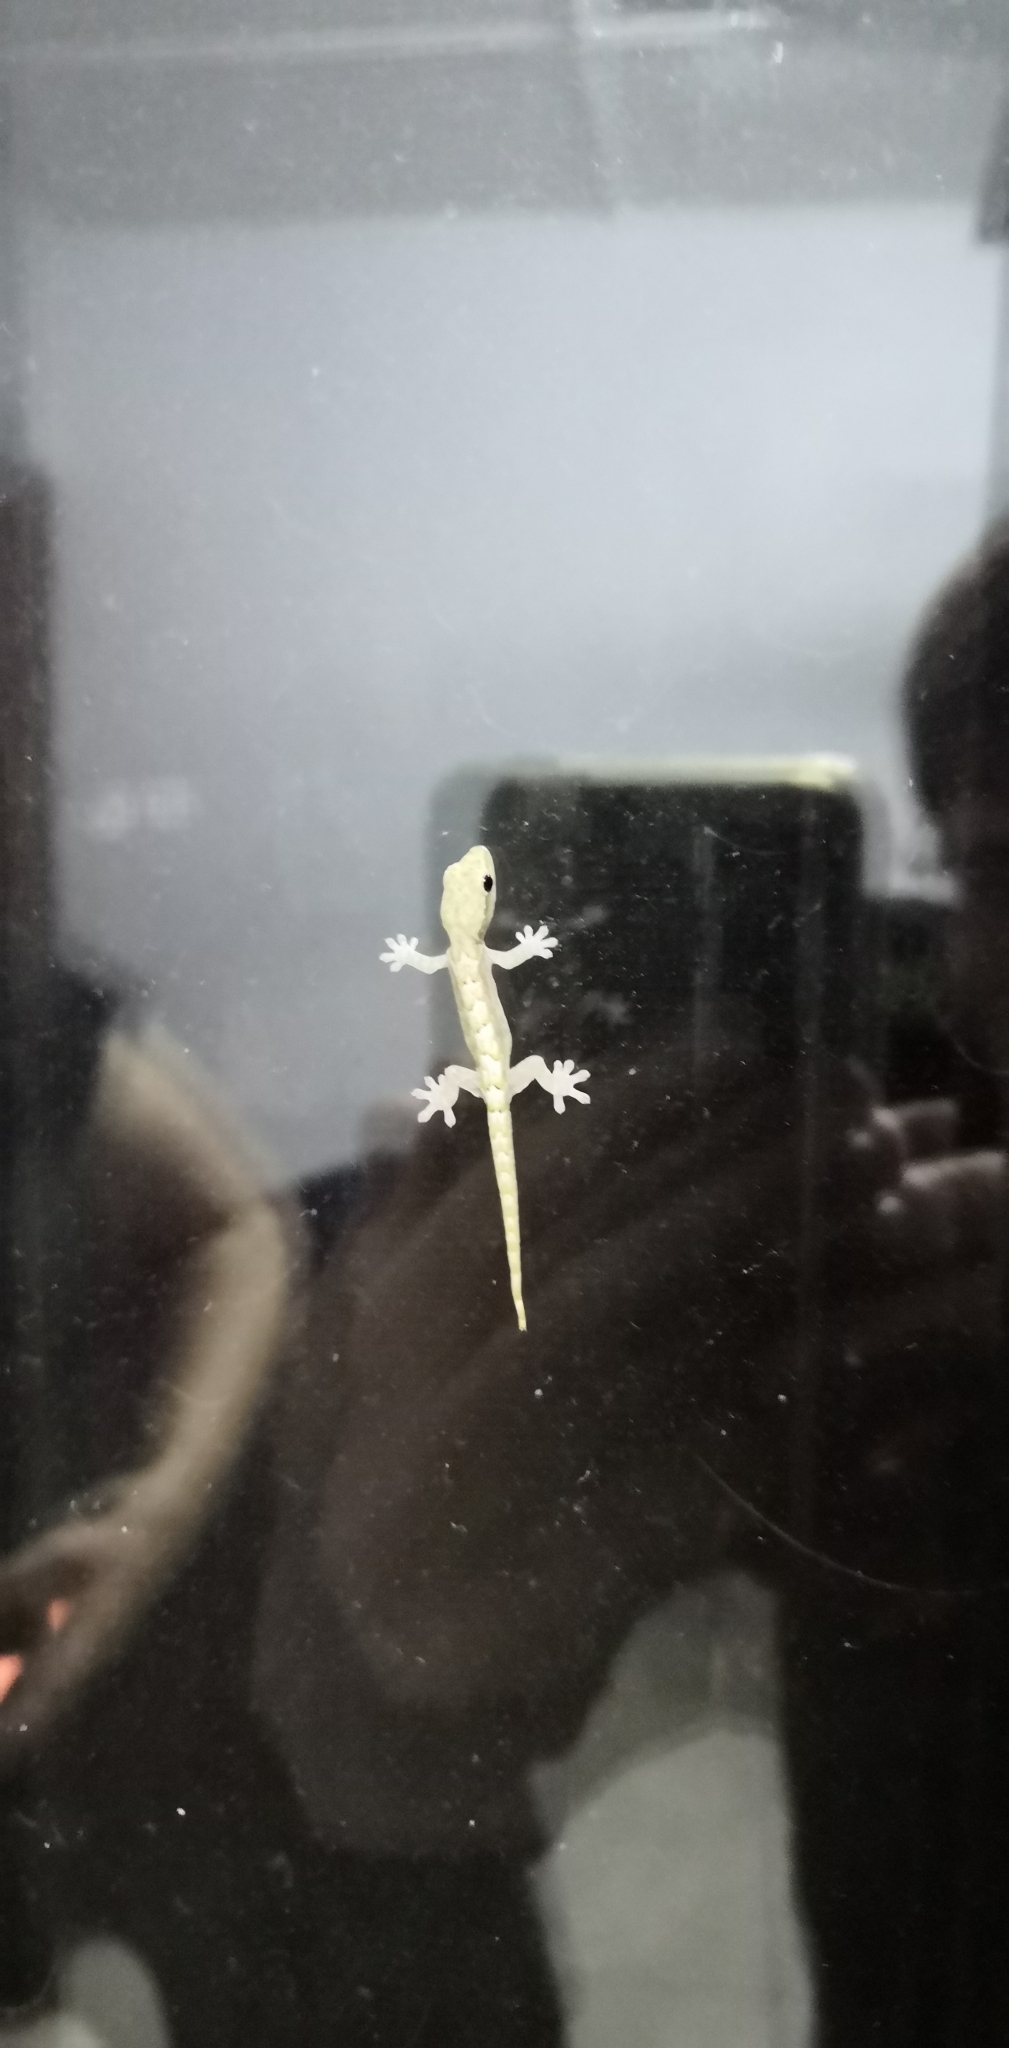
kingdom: Animalia
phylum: Chordata
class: Squamata
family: Gekkonidae
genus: Lepidodactylus
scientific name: Lepidodactylus lugubris
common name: Mourning gecko
